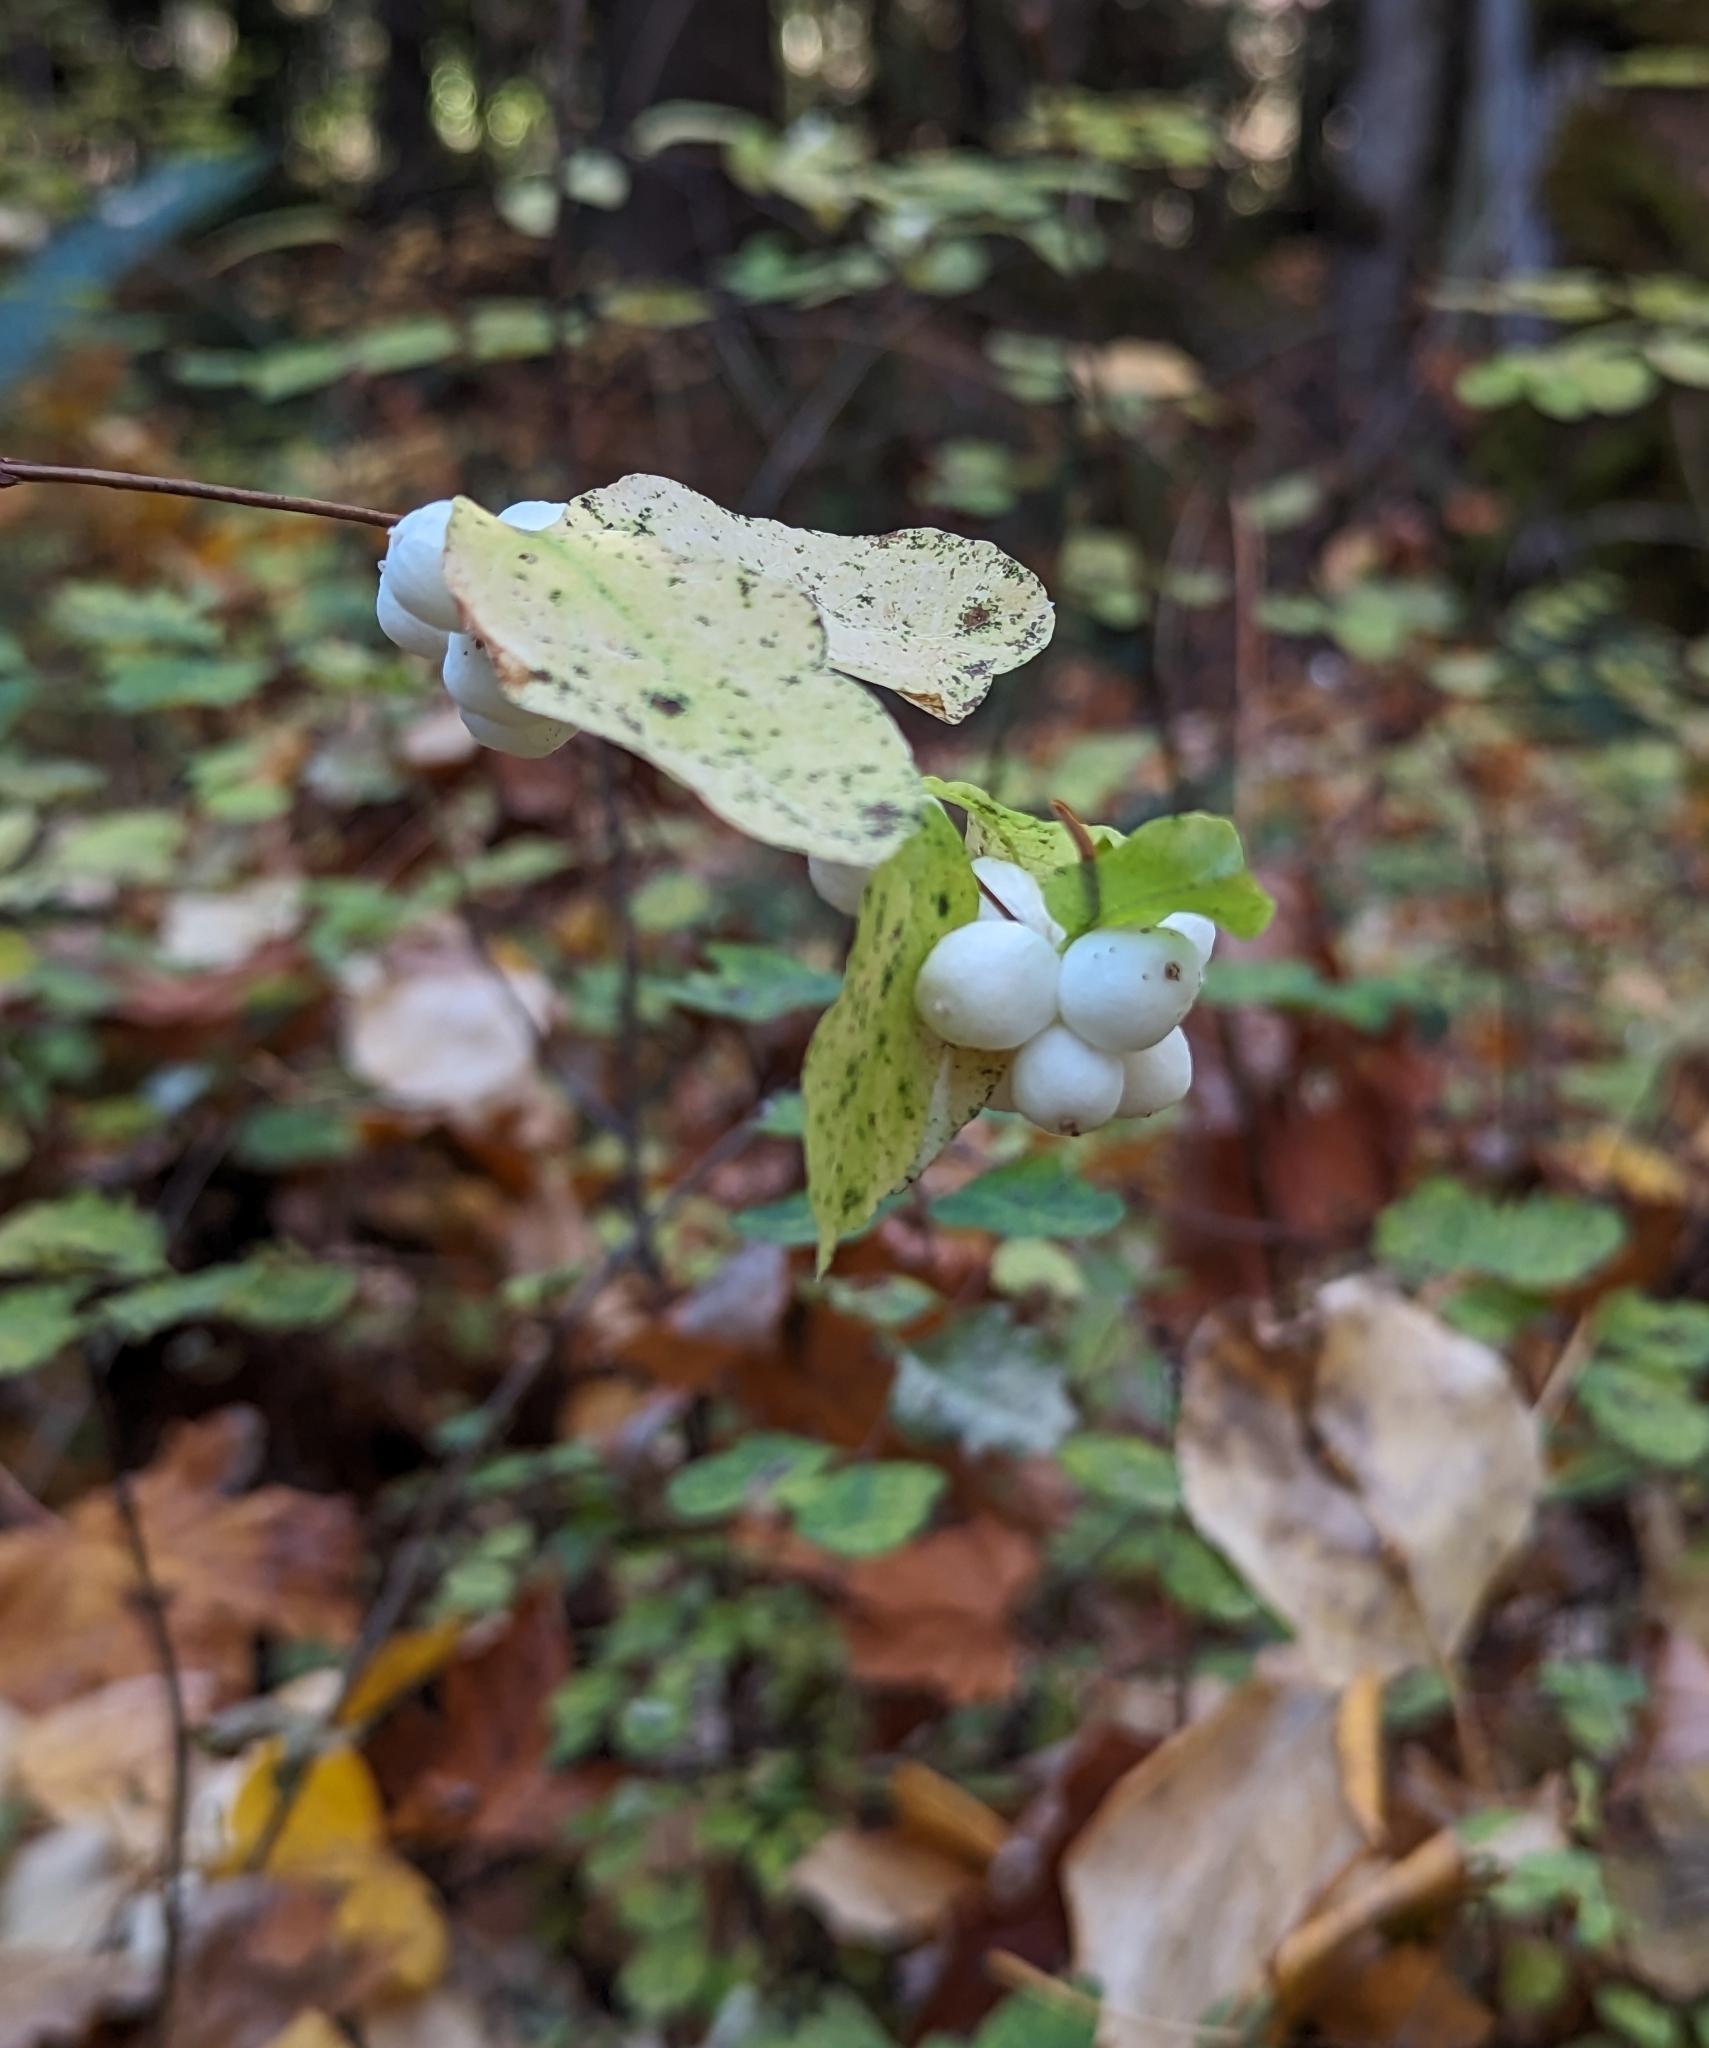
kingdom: Plantae
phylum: Tracheophyta
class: Magnoliopsida
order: Dipsacales
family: Caprifoliaceae
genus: Symphoricarpos
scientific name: Symphoricarpos albus
